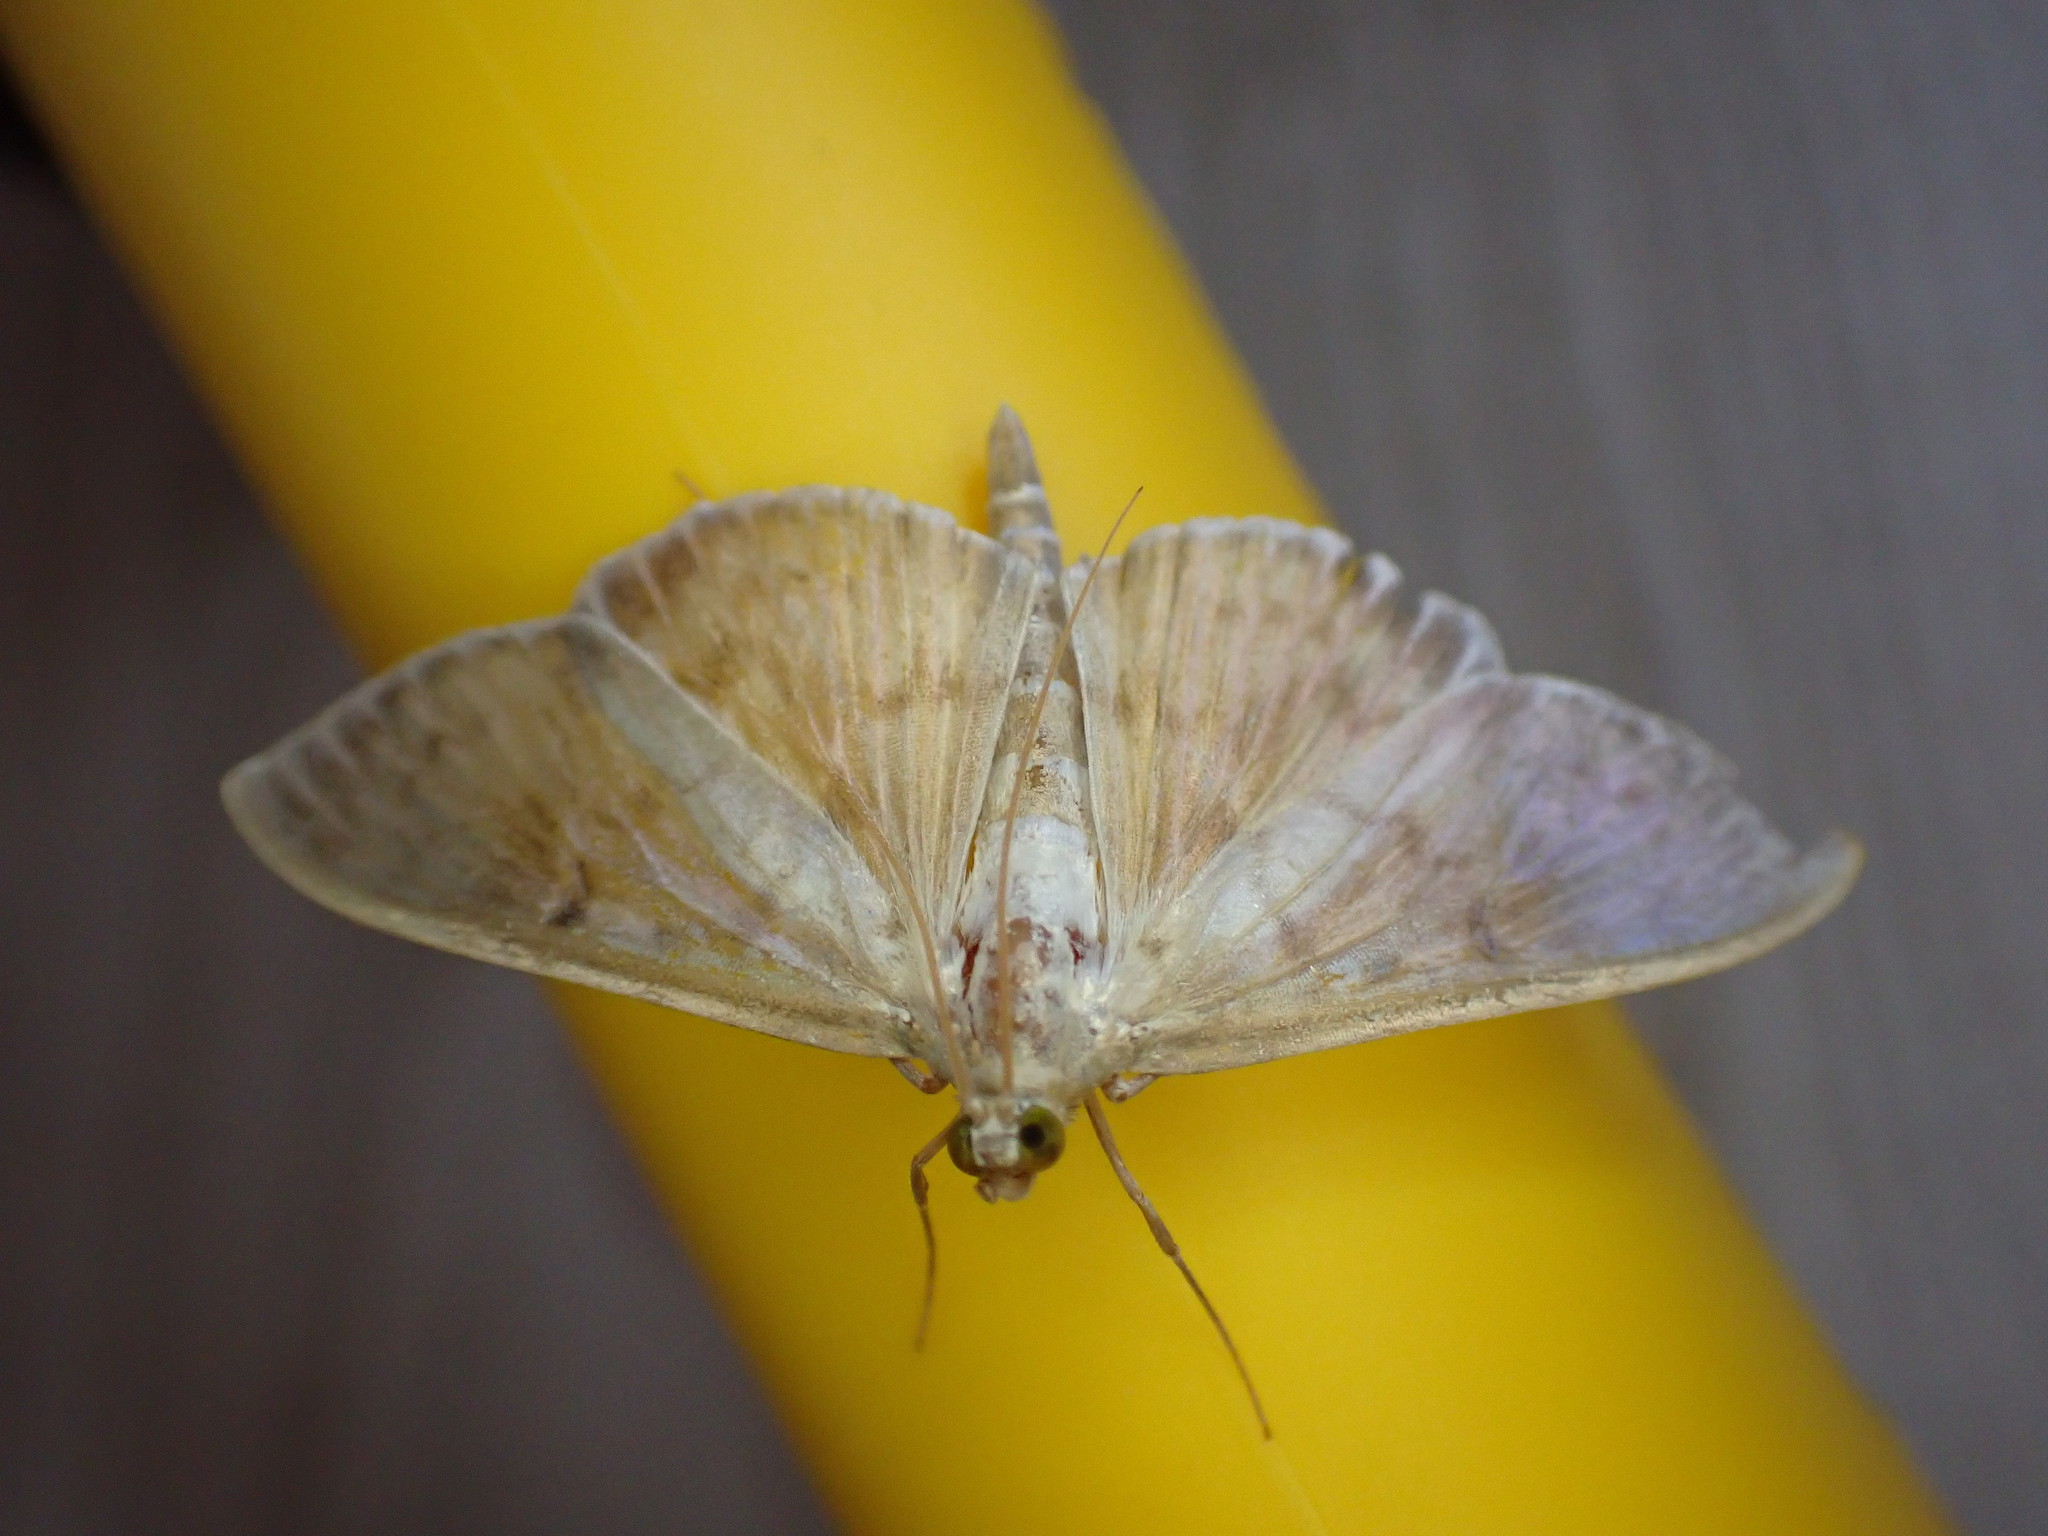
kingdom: Animalia
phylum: Arthropoda
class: Insecta
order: Lepidoptera
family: Crambidae
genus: Patania
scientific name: Patania ruralis
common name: Mother of pearl
